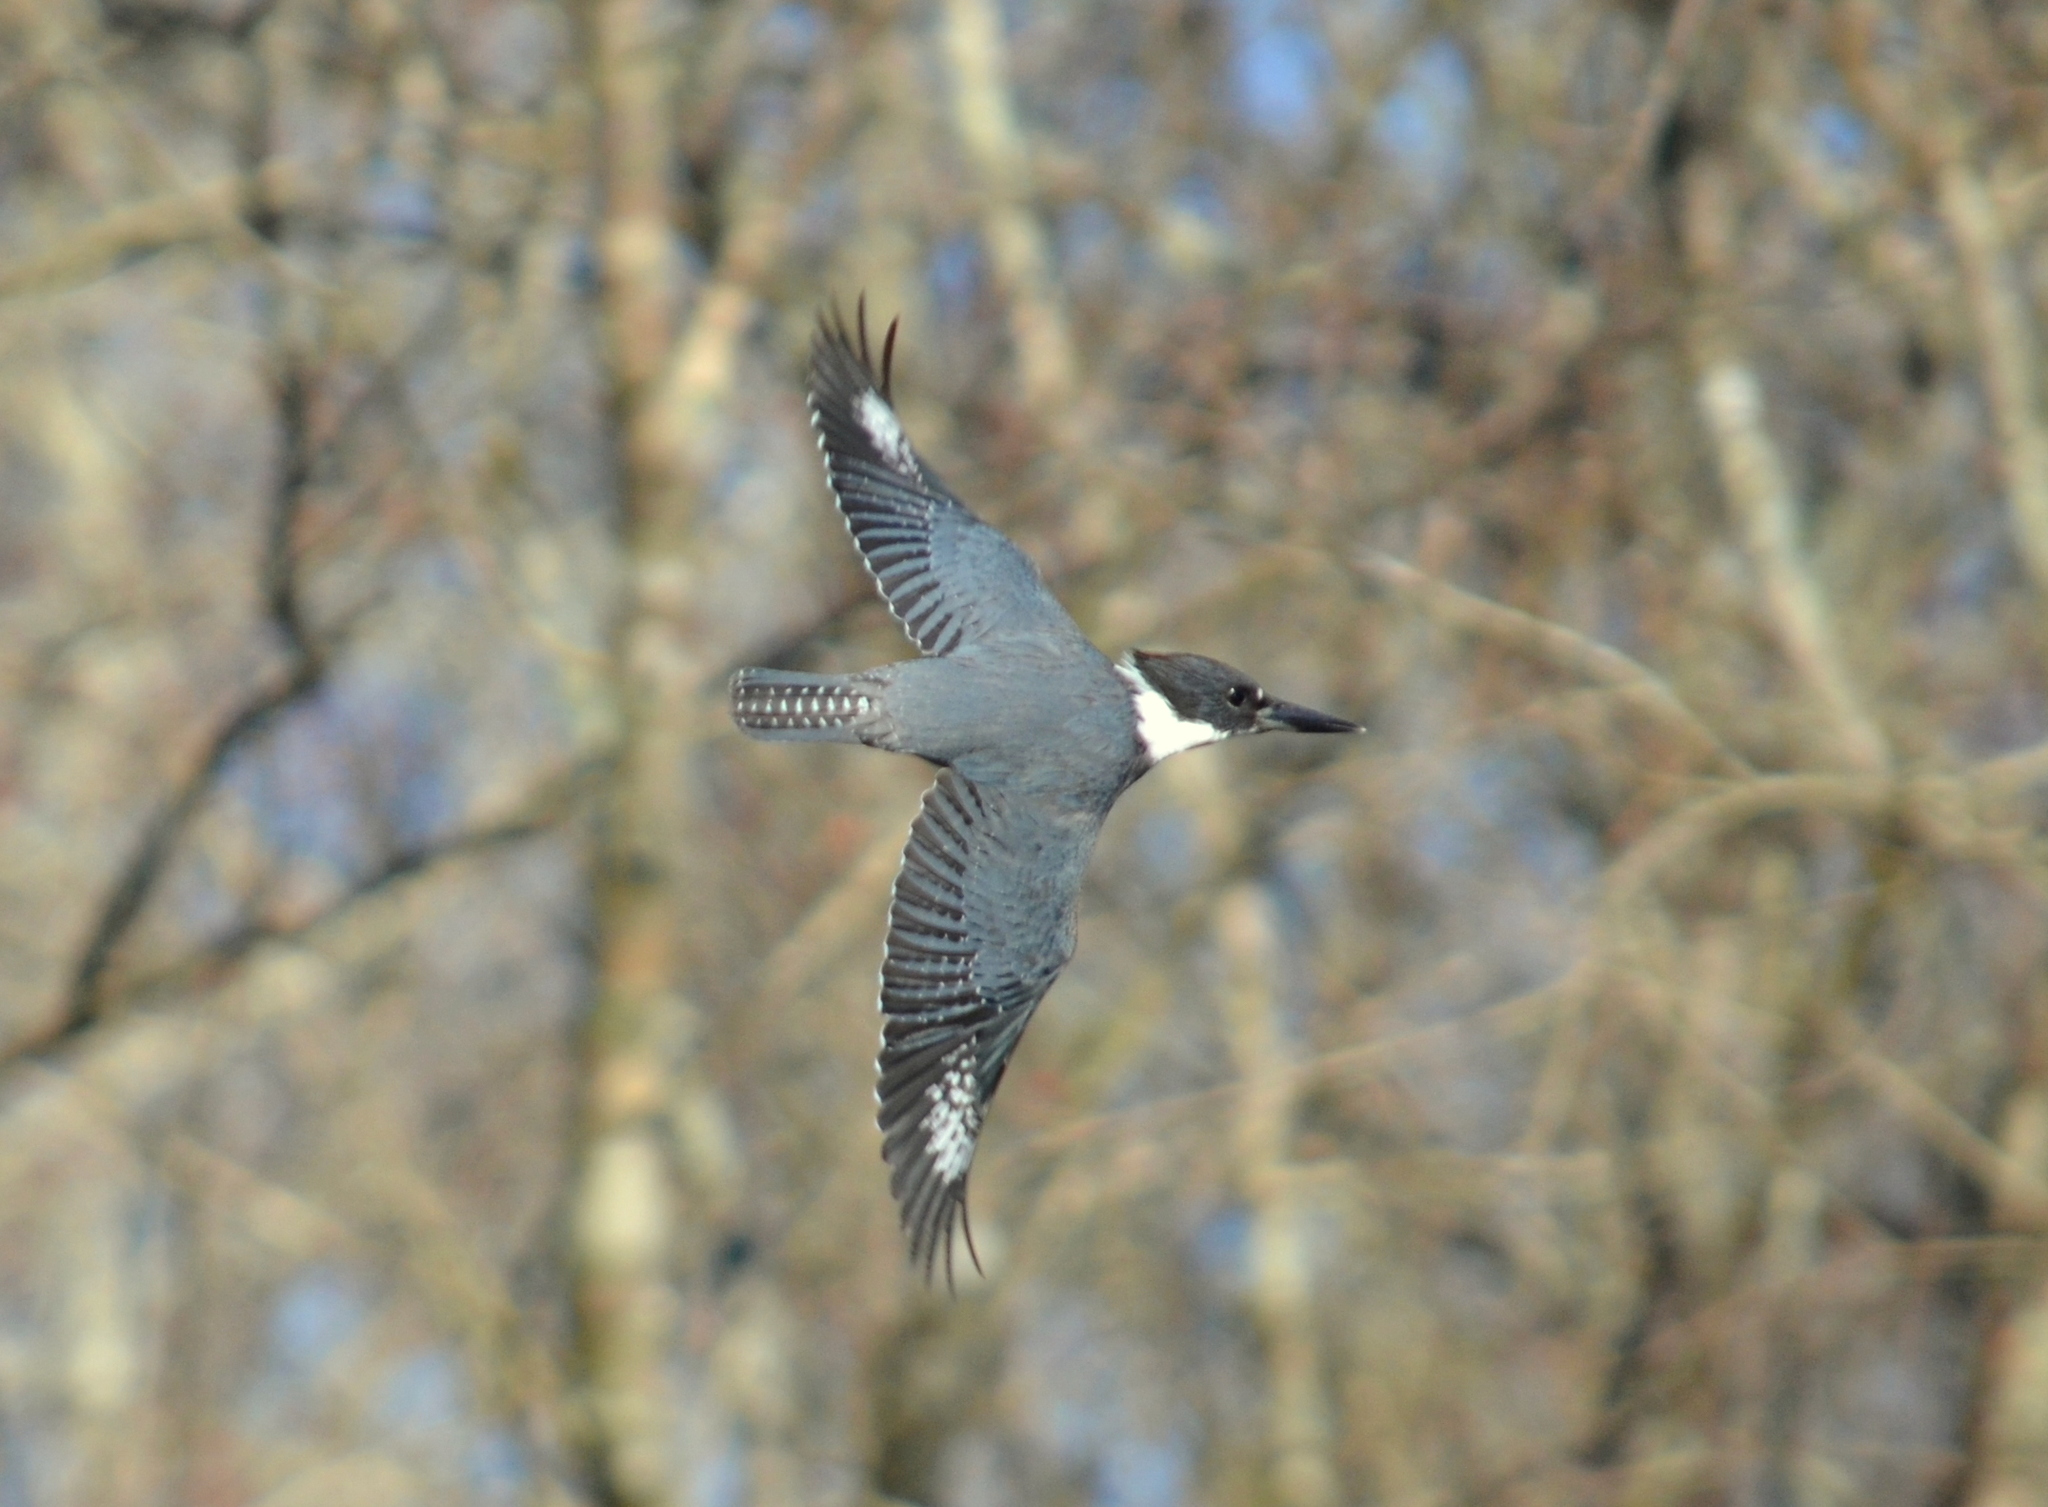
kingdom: Animalia
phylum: Chordata
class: Aves
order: Coraciiformes
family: Alcedinidae
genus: Megaceryle
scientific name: Megaceryle alcyon
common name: Belted kingfisher
